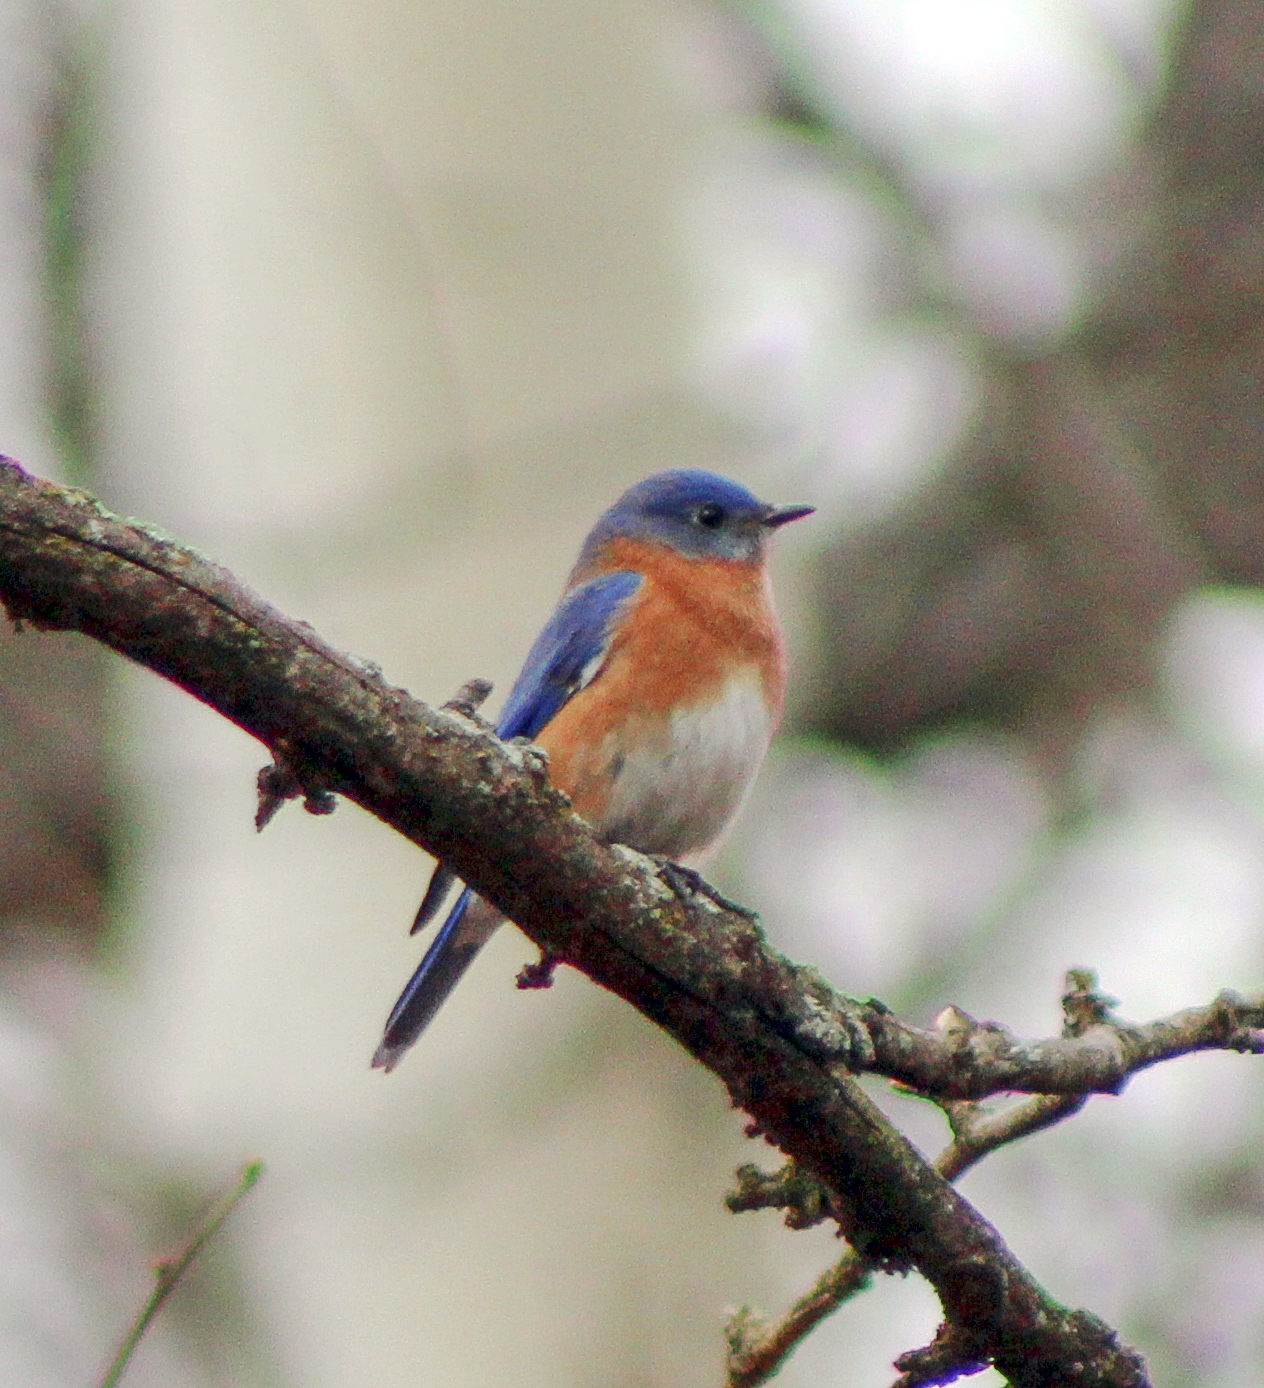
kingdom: Animalia
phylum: Chordata
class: Aves
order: Passeriformes
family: Turdidae
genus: Sialia
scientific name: Sialia sialis
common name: Eastern bluebird
